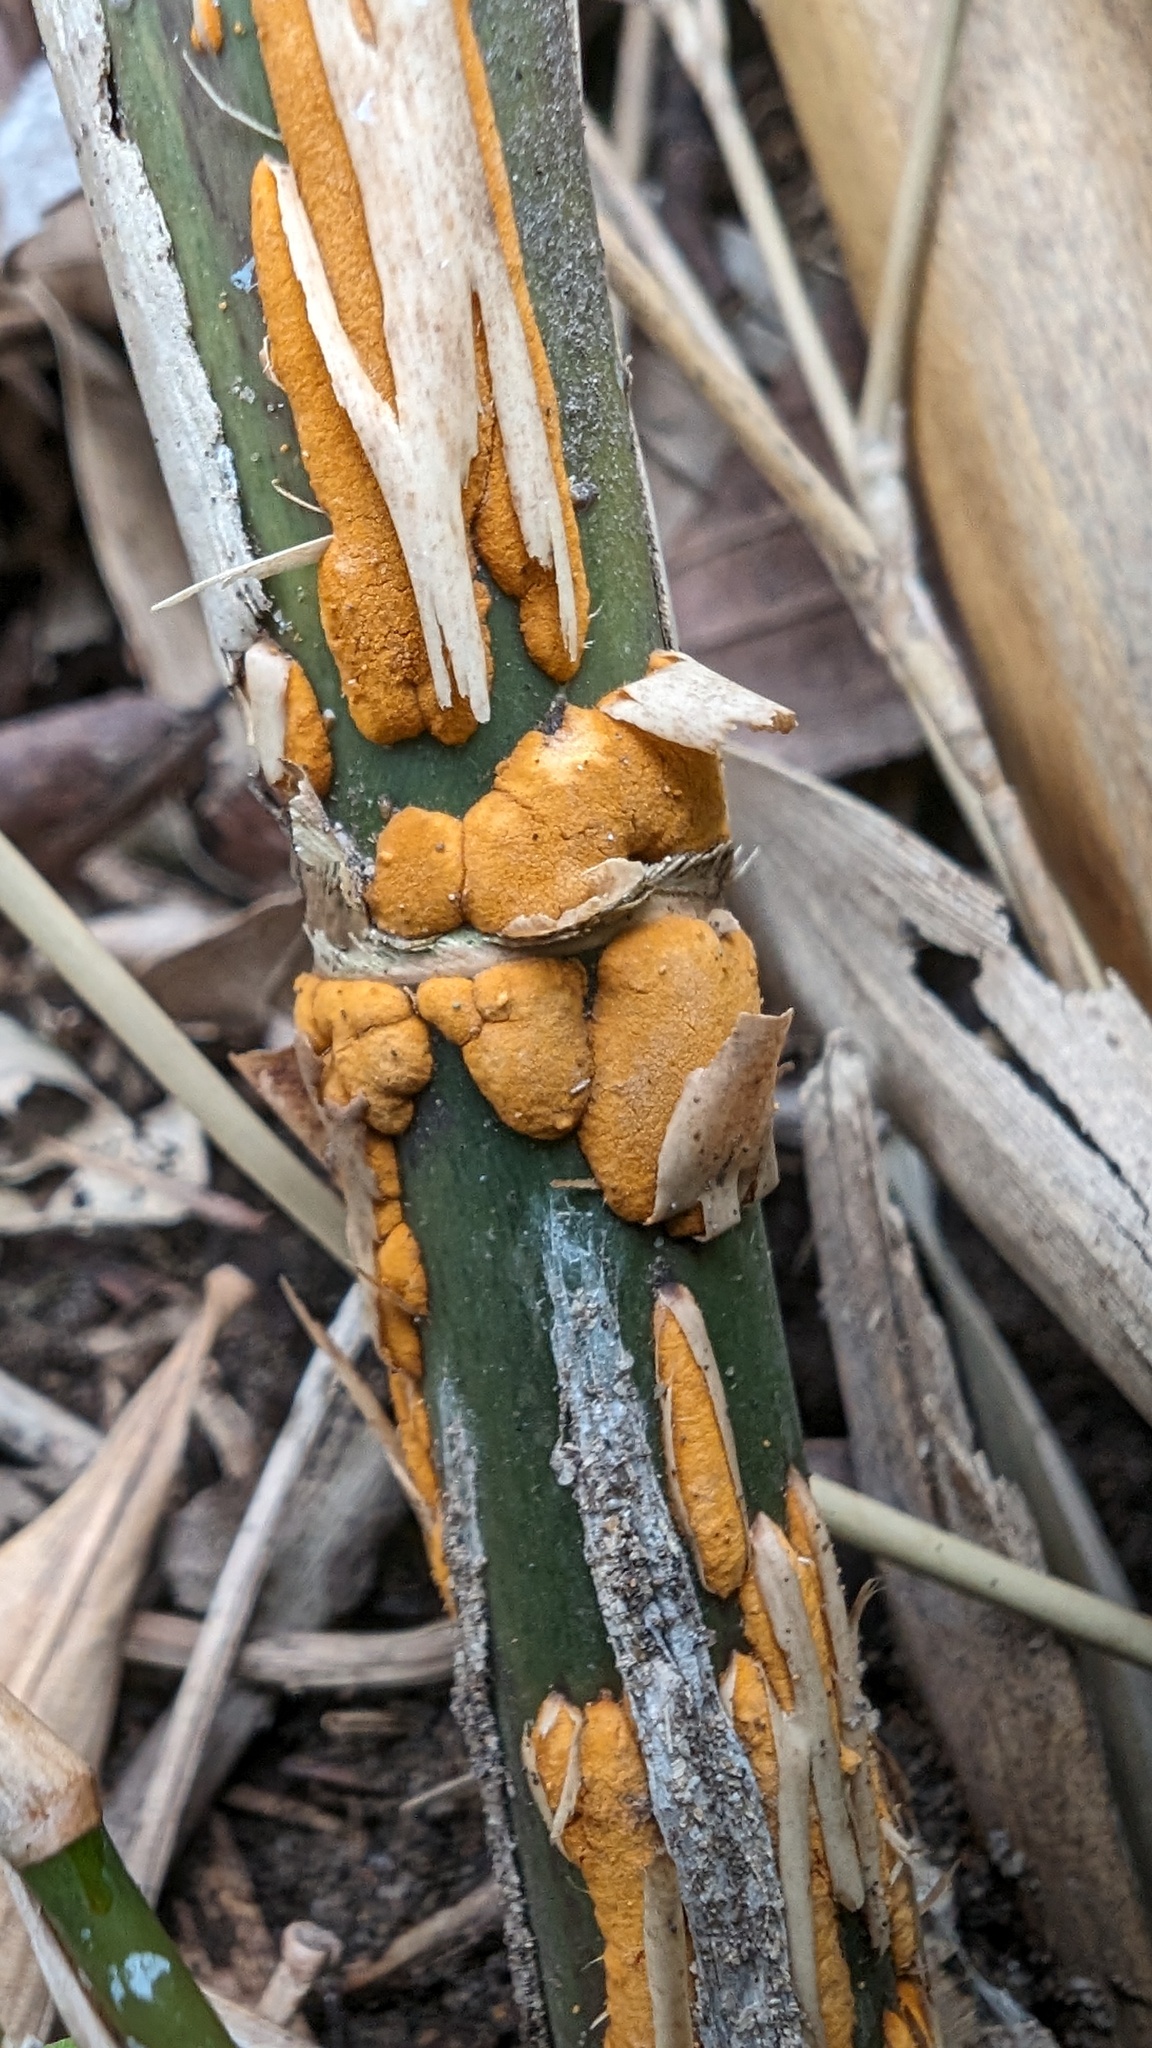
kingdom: Fungi
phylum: Basidiomycota
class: Pucciniomycetes
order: Pucciniales
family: Pucciniaceae
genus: Stereostratum
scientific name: Stereostratum corticioides
